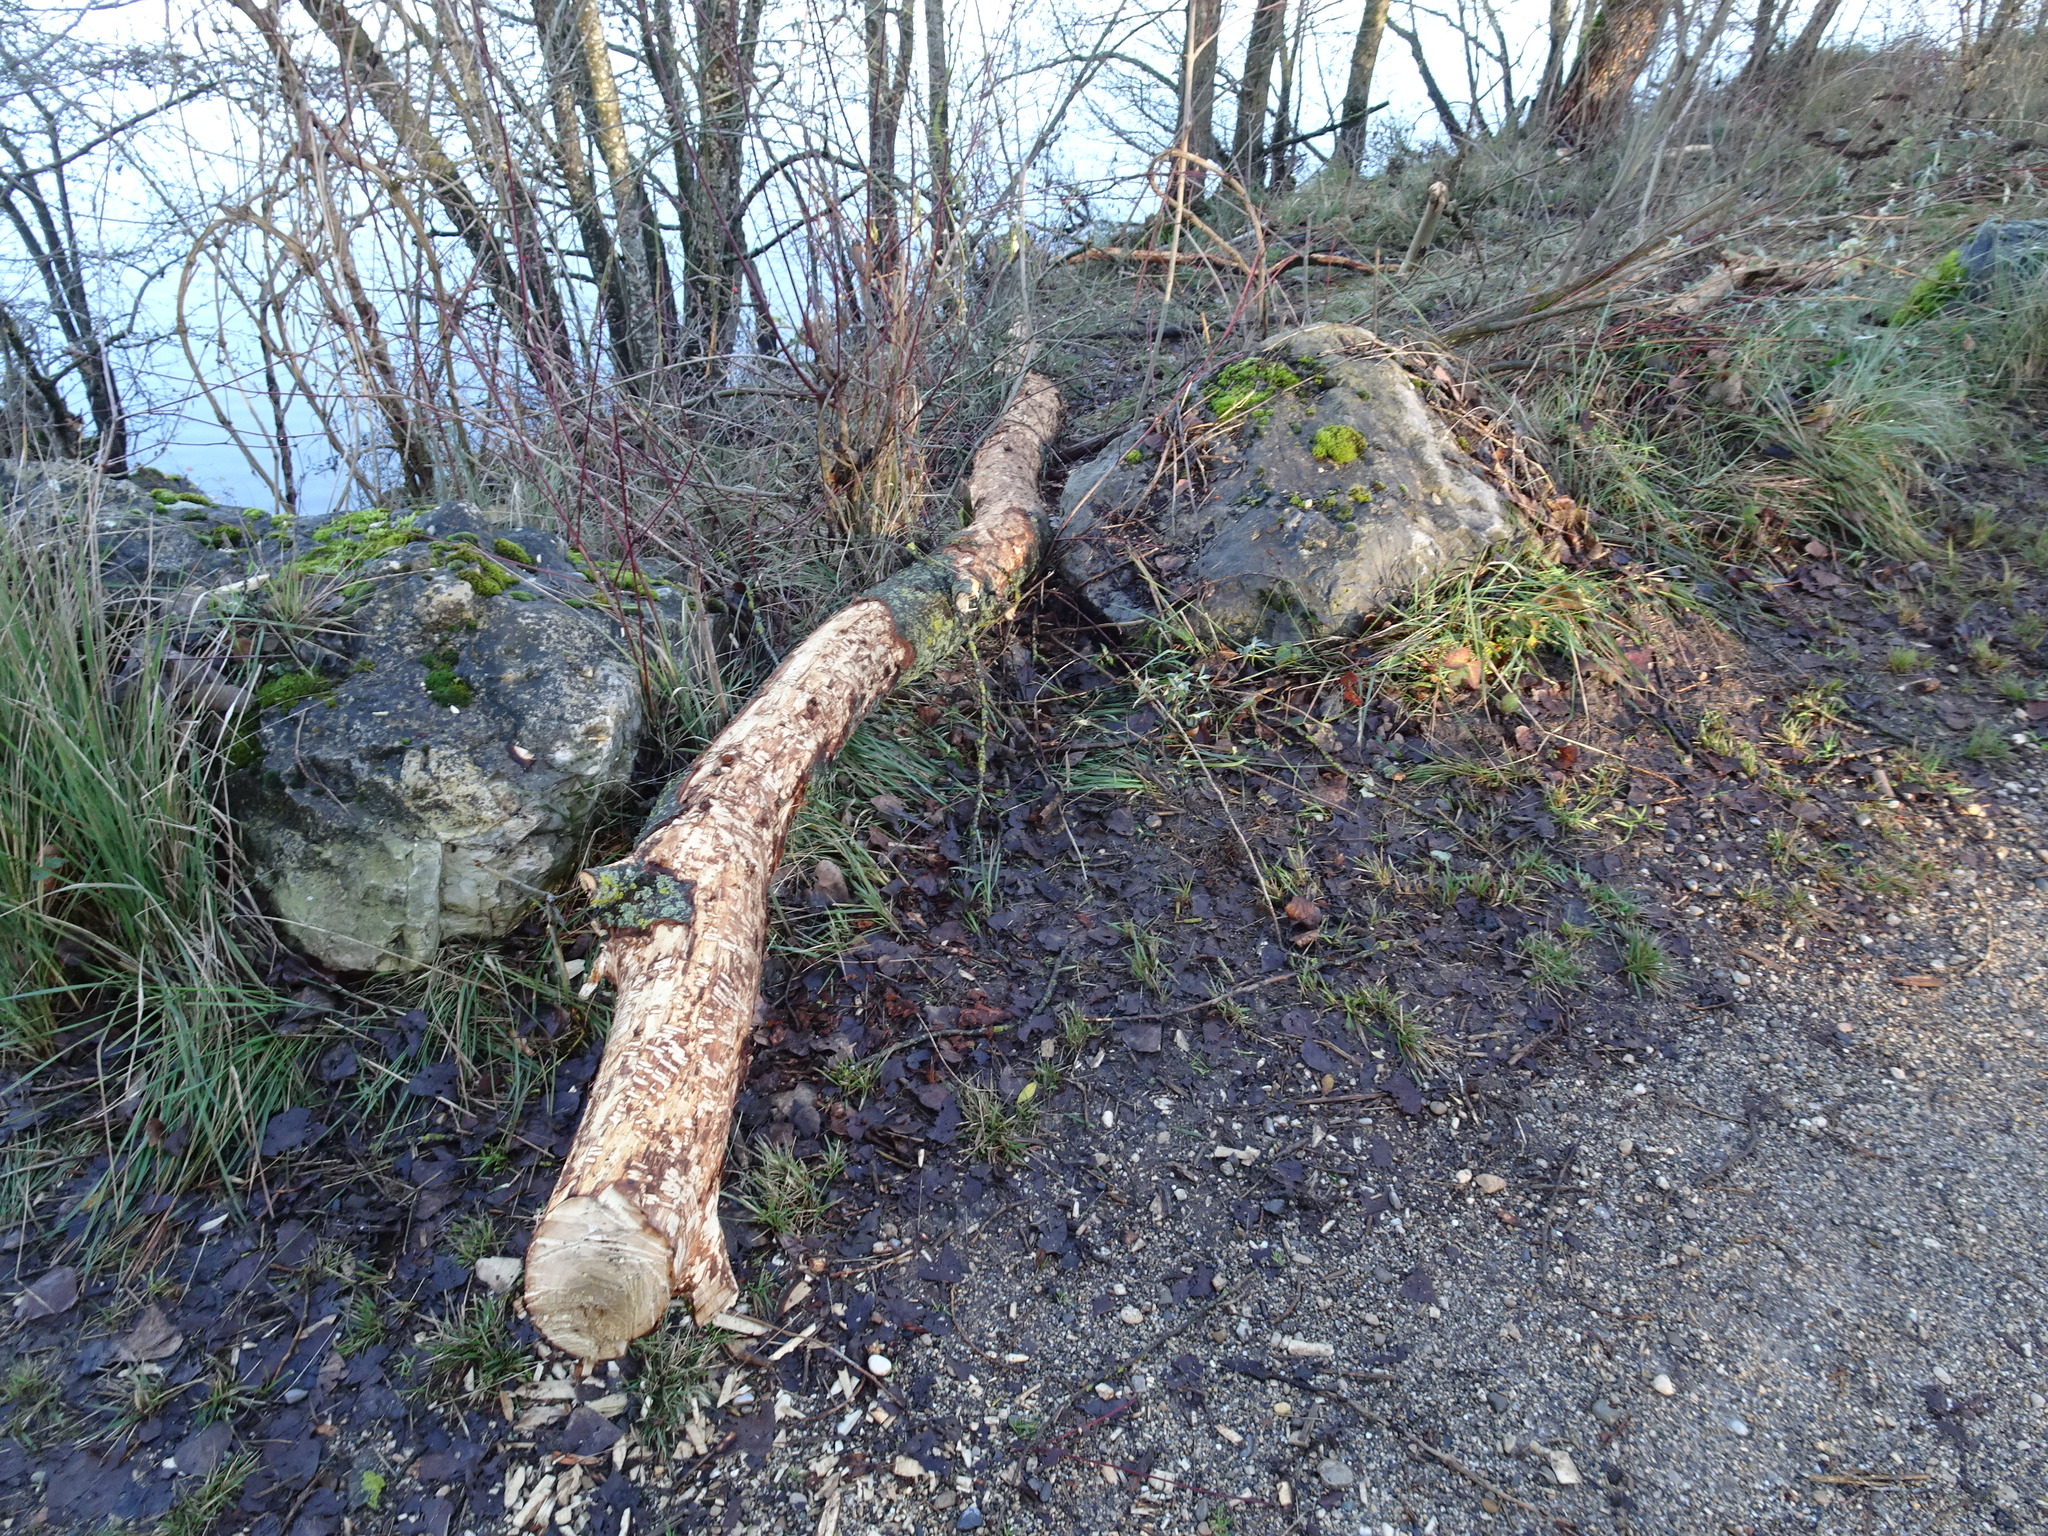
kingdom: Animalia
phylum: Chordata
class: Mammalia
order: Rodentia
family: Castoridae
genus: Castor
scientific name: Castor fiber
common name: Eurasian beaver
